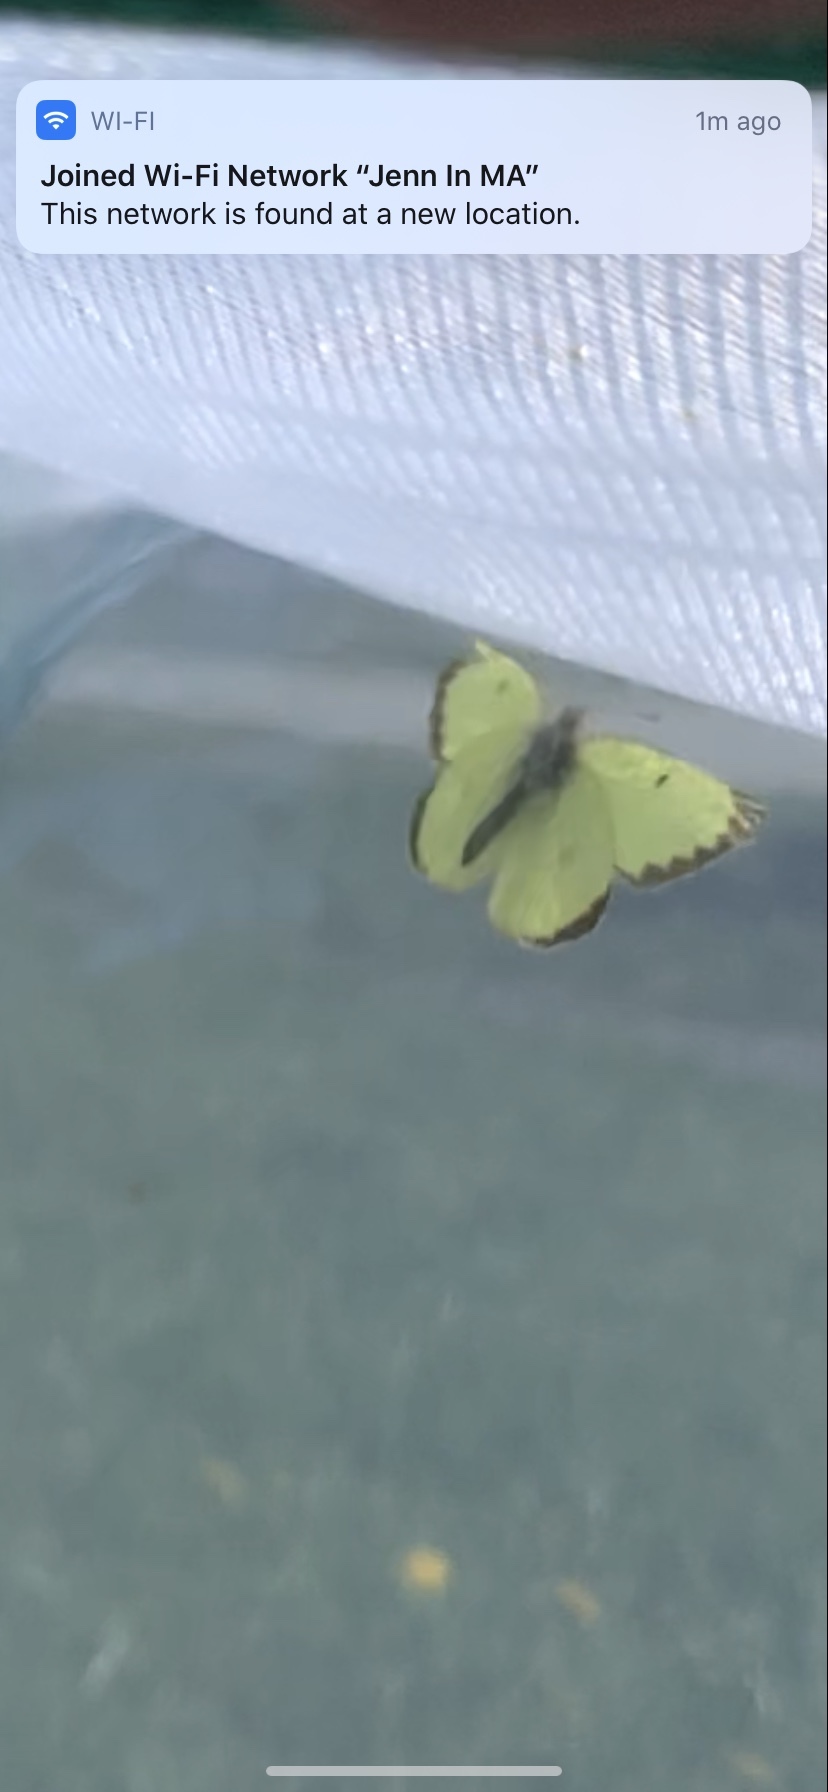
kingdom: Animalia
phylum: Arthropoda
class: Insecta
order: Lepidoptera
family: Pieridae
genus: Colias
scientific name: Colias philodice
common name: Clouded sulphur
